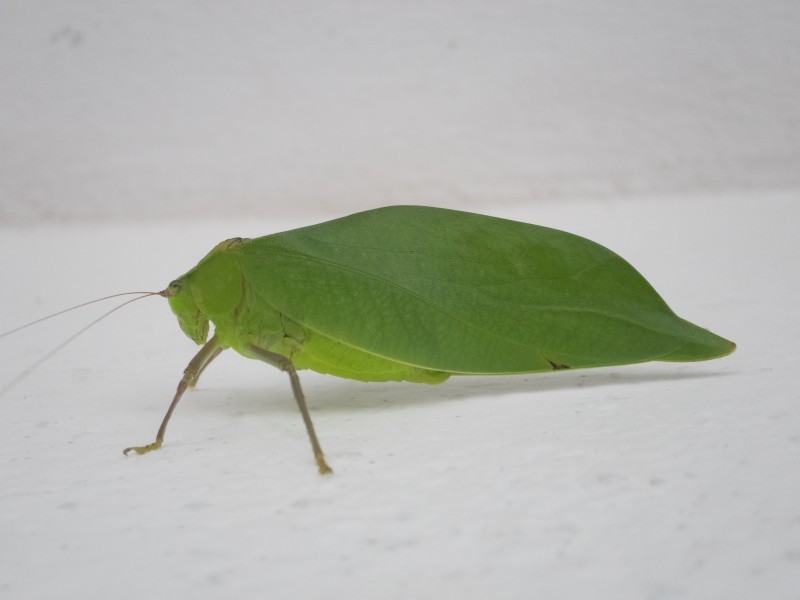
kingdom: Animalia
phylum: Arthropoda
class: Insecta
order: Orthoptera
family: Tettigoniidae
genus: Stilpnochlora
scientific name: Stilpnochlora couloniana
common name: Giant katydid
